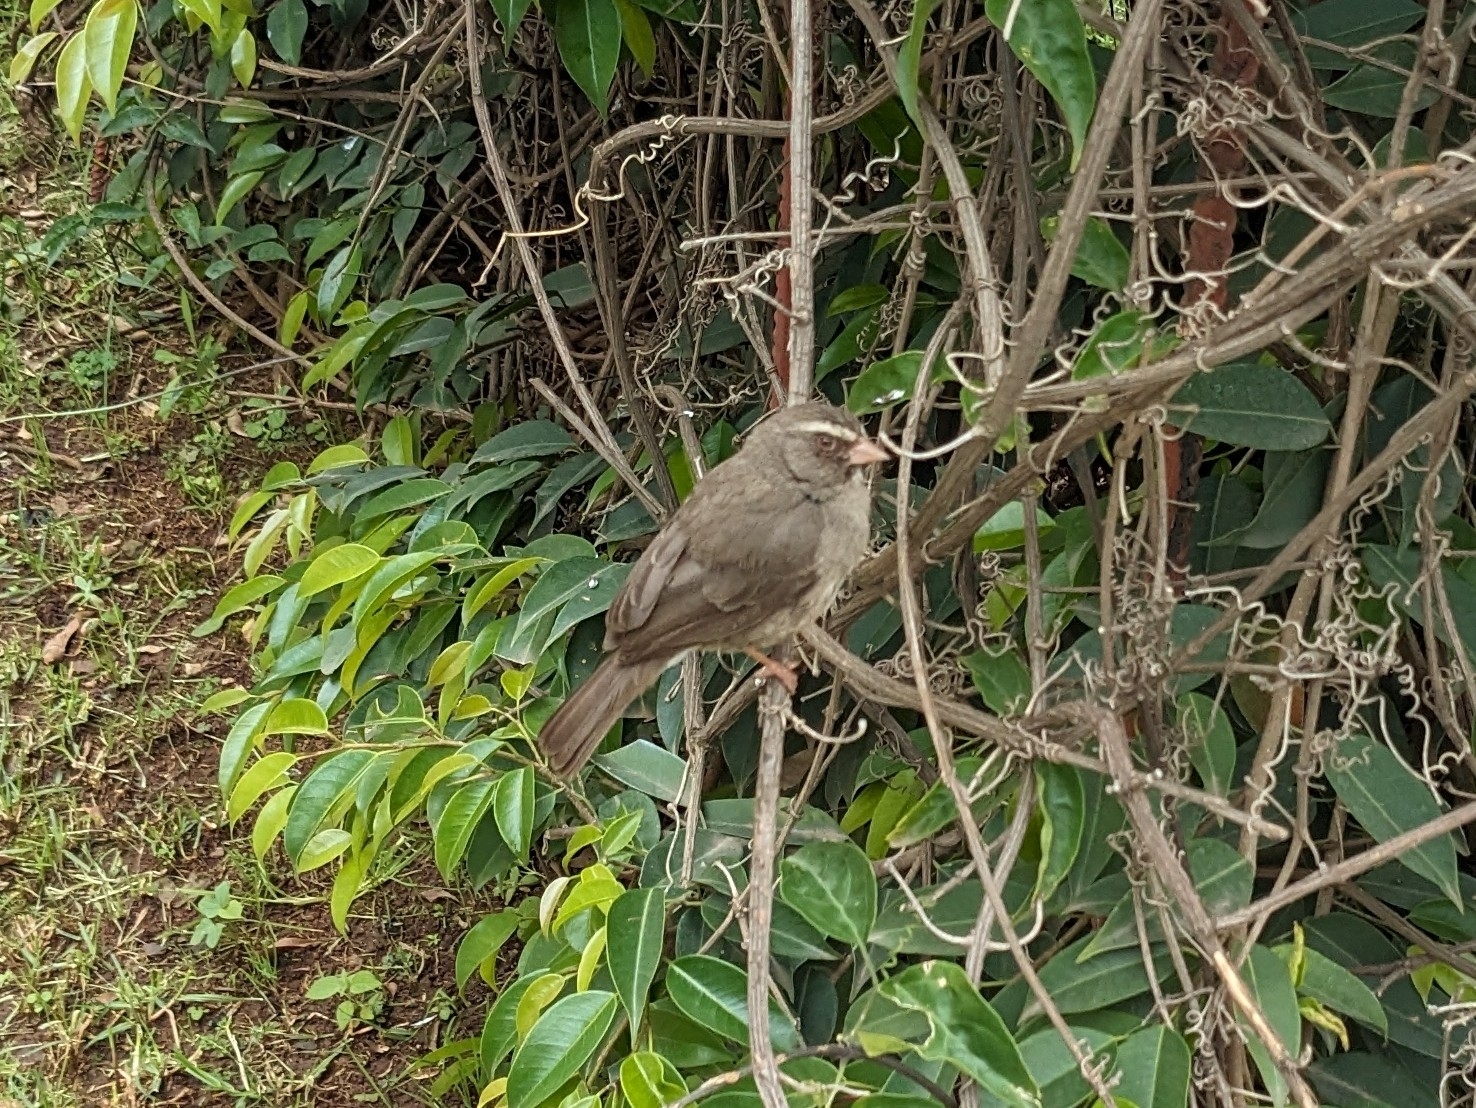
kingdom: Animalia
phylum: Chordata
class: Aves
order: Passeriformes
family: Fringillidae
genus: Crithagra
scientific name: Crithagra tristriata
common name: Brown-rumped seedeater
